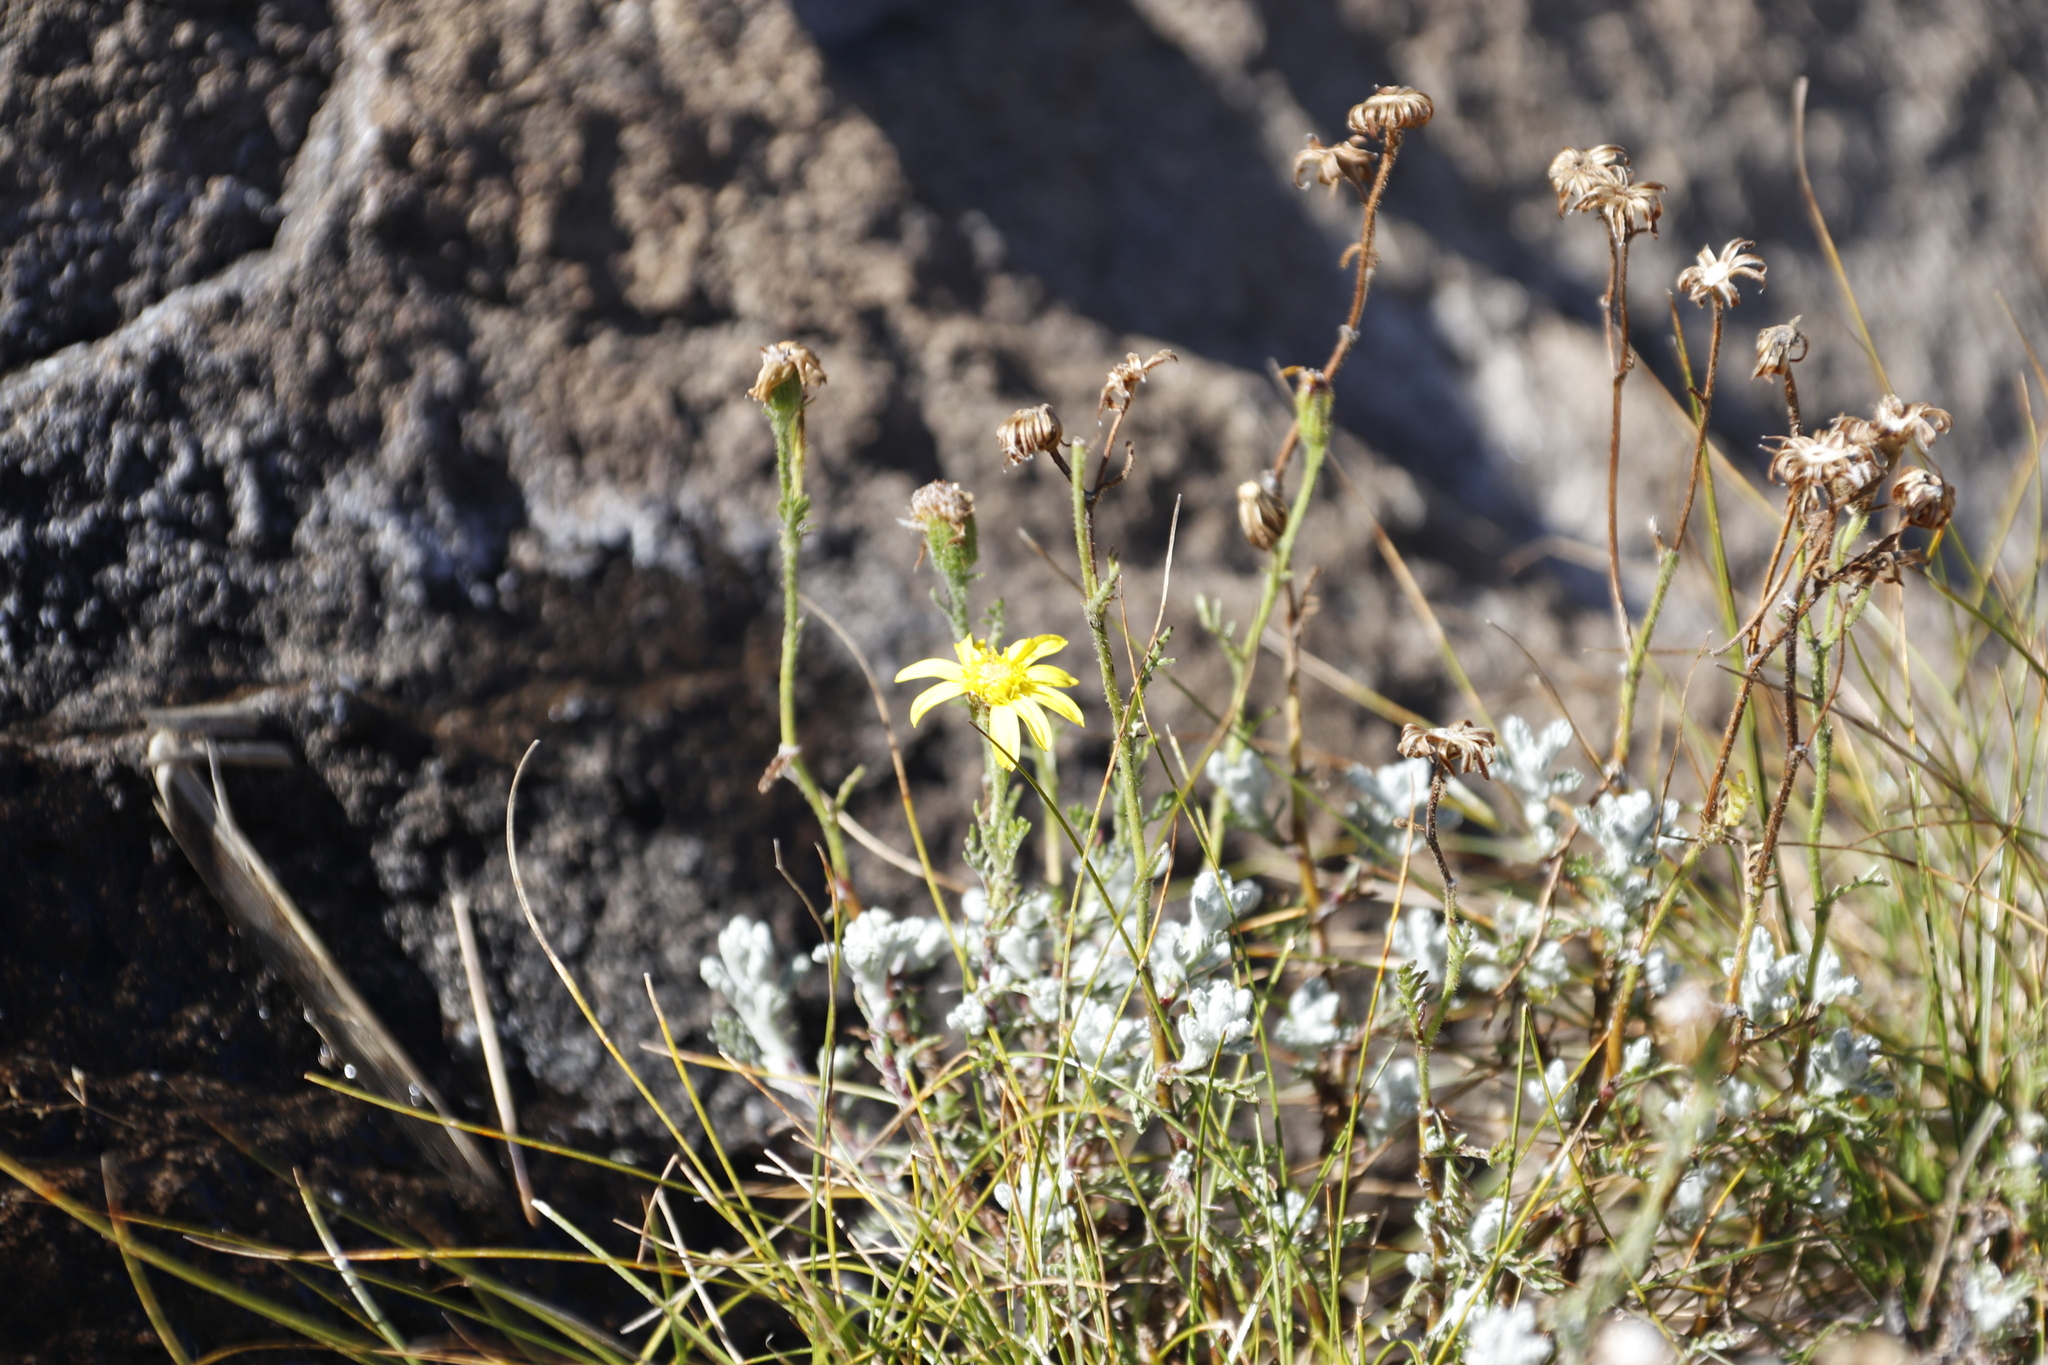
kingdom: Plantae
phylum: Tracheophyta
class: Magnoliopsida
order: Asterales
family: Asteraceae
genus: Senecio
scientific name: Senecio seminiveus
